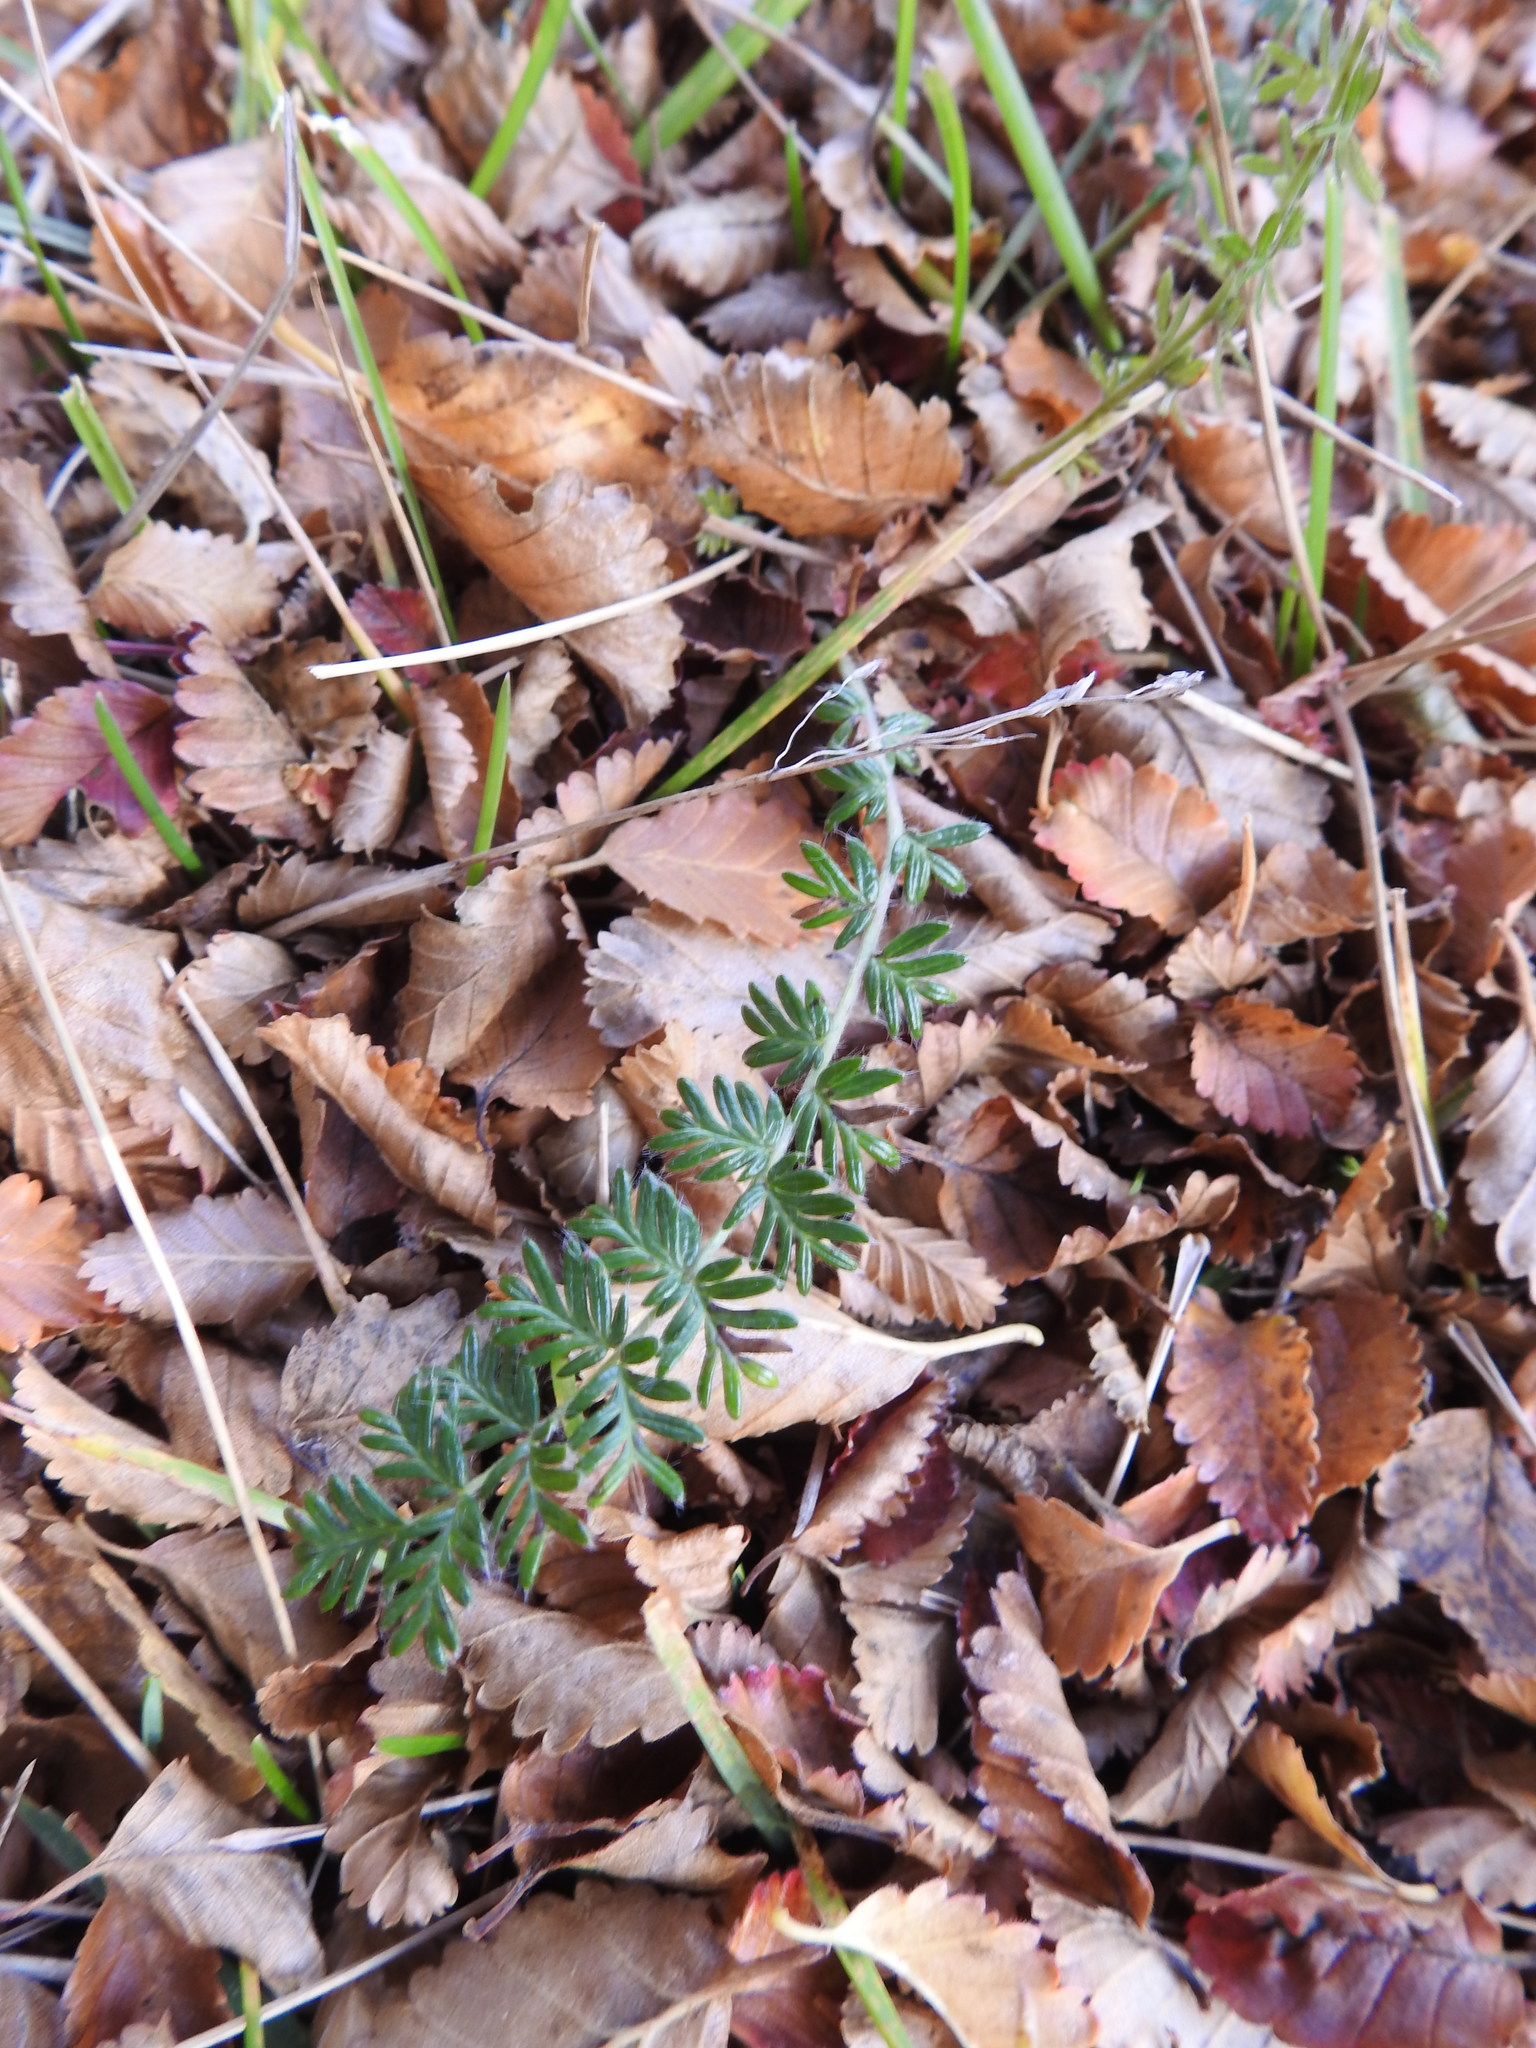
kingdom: Plantae
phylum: Tracheophyta
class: Magnoliopsida
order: Rosales
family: Rosaceae
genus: Acaena
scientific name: Acaena pinnatifida
